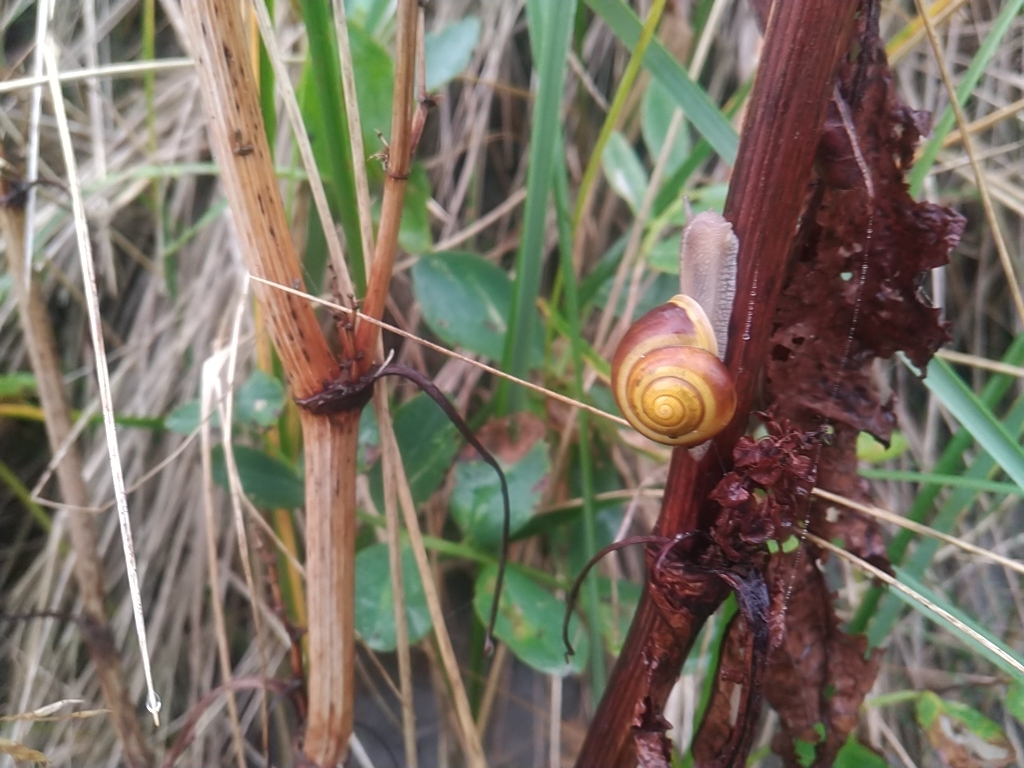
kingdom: Animalia
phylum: Mollusca
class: Gastropoda
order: Stylommatophora
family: Helicidae
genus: Cepaea
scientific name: Cepaea hortensis
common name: White-lip gardensnail
